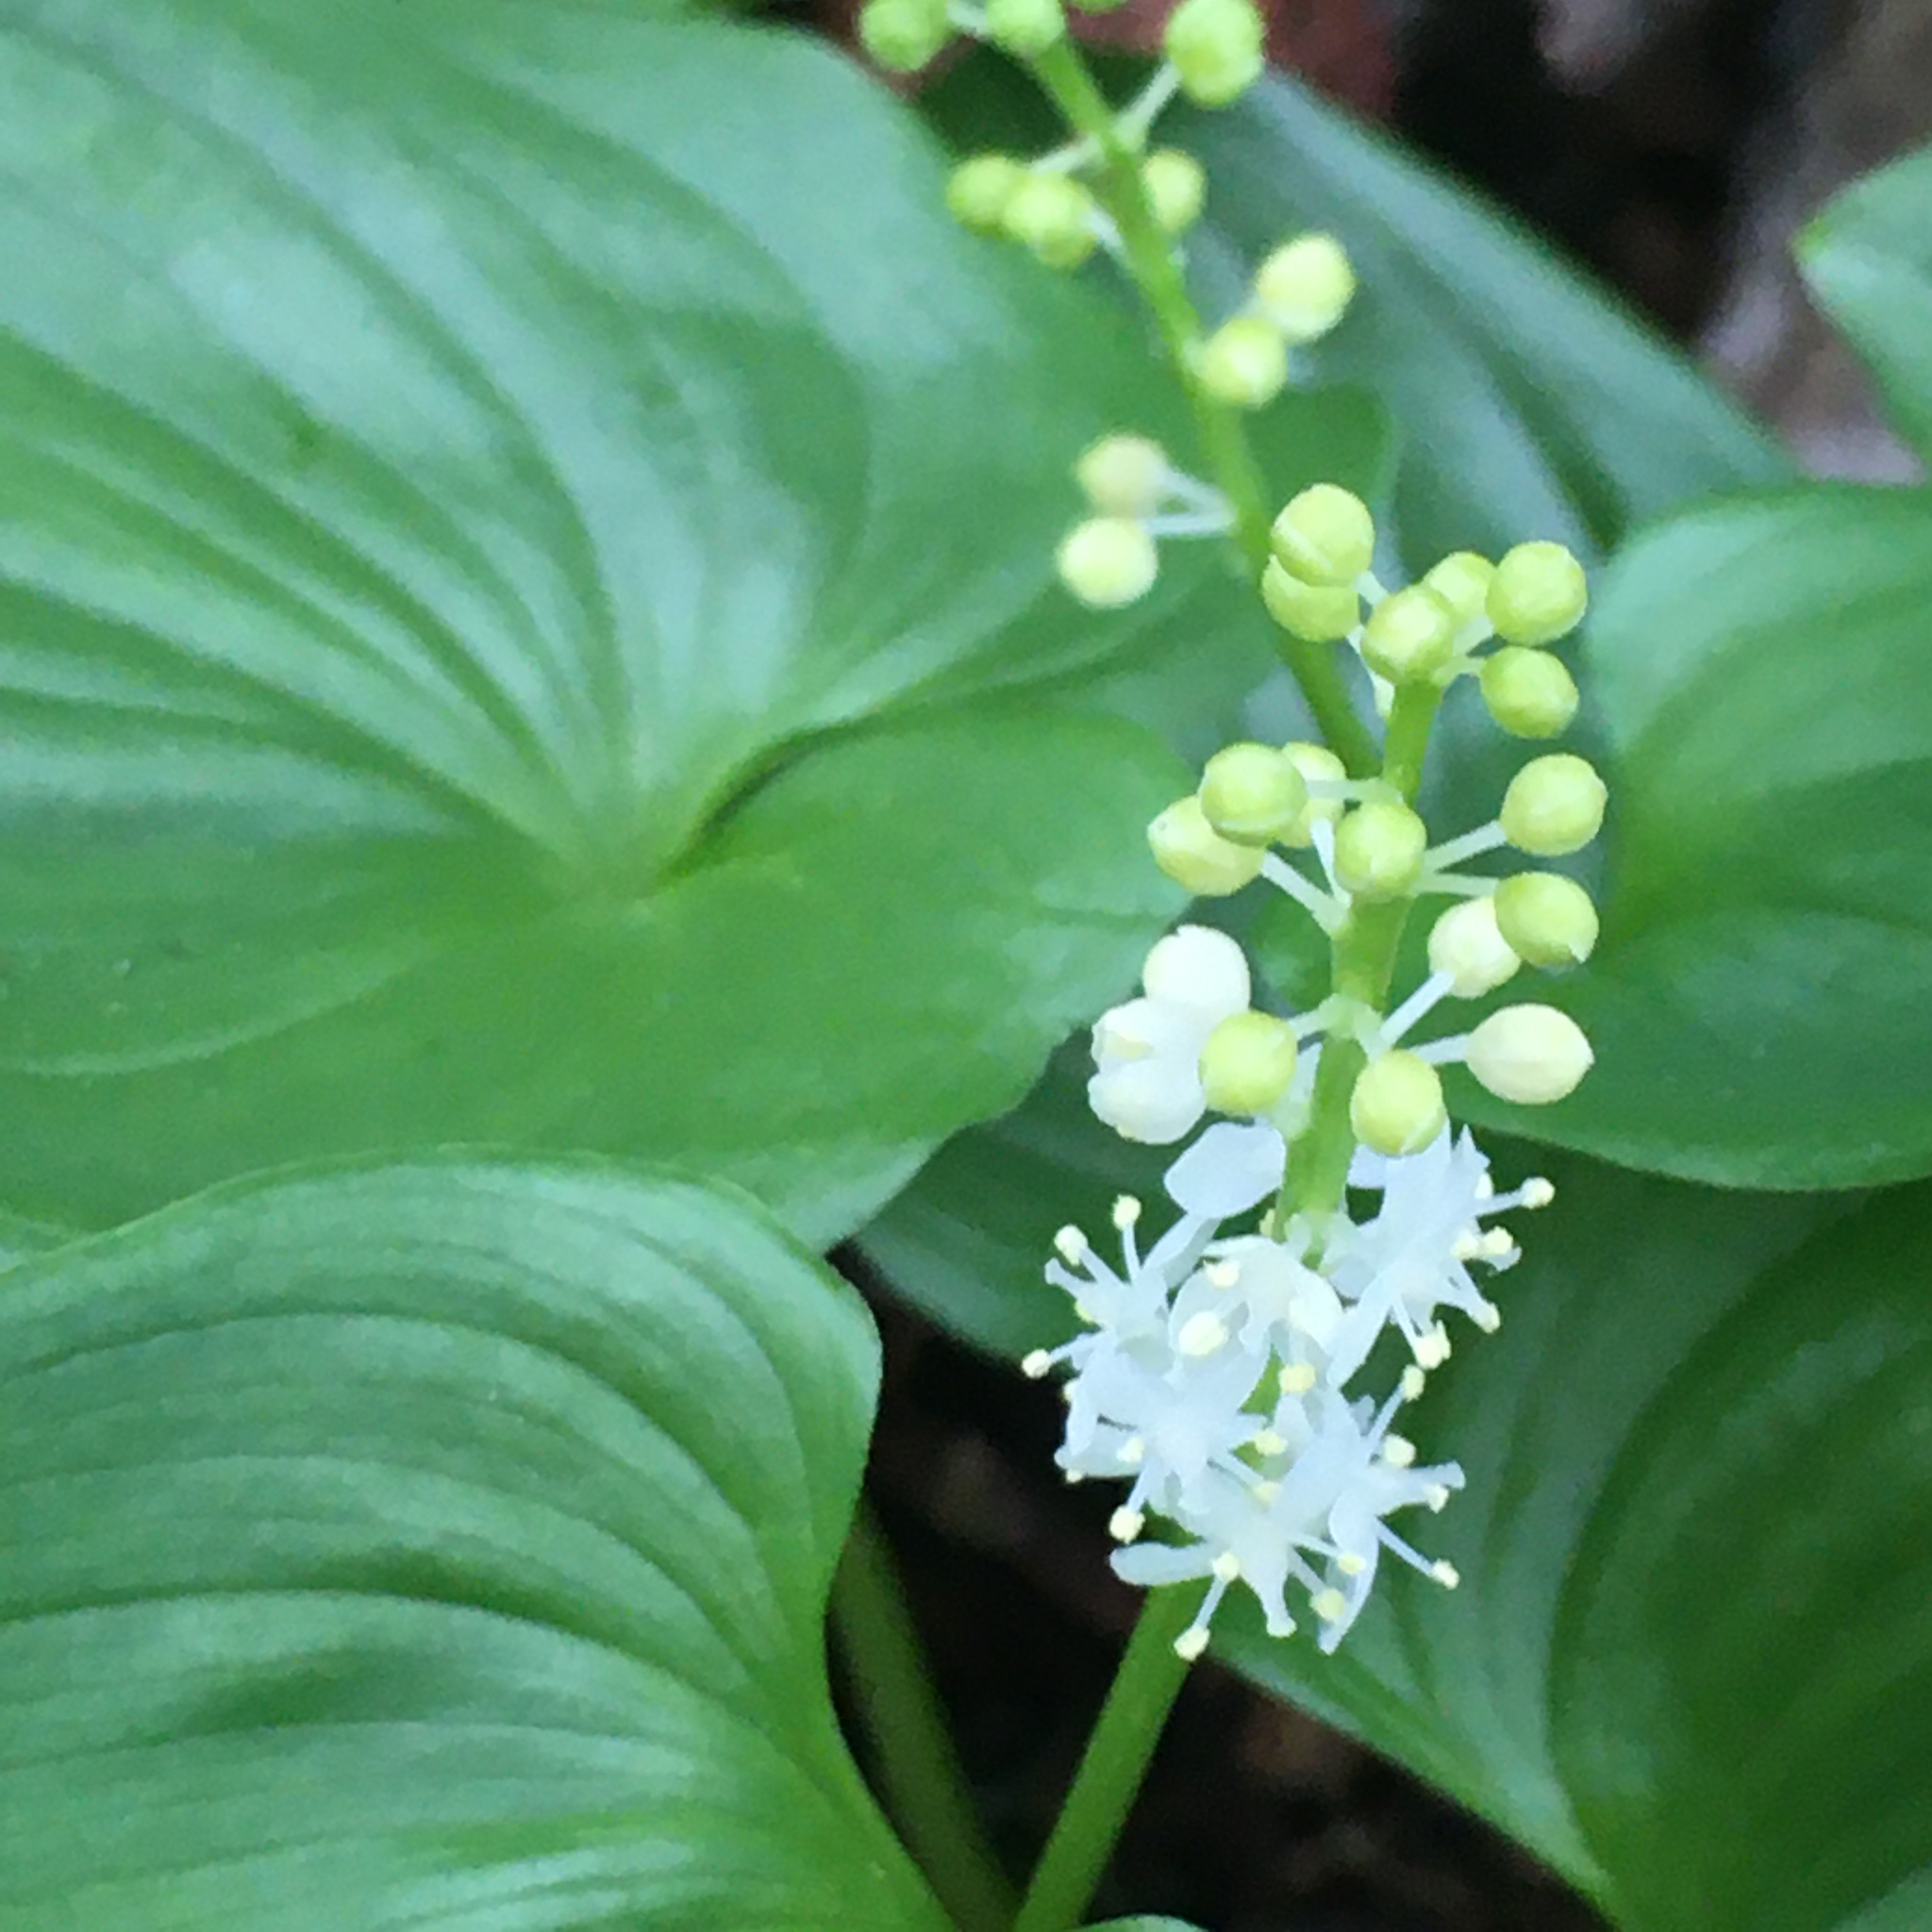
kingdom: Plantae
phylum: Tracheophyta
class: Liliopsida
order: Asparagales
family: Asparagaceae
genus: Maianthemum
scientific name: Maianthemum dilatatum
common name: False lily-of-the-valley
